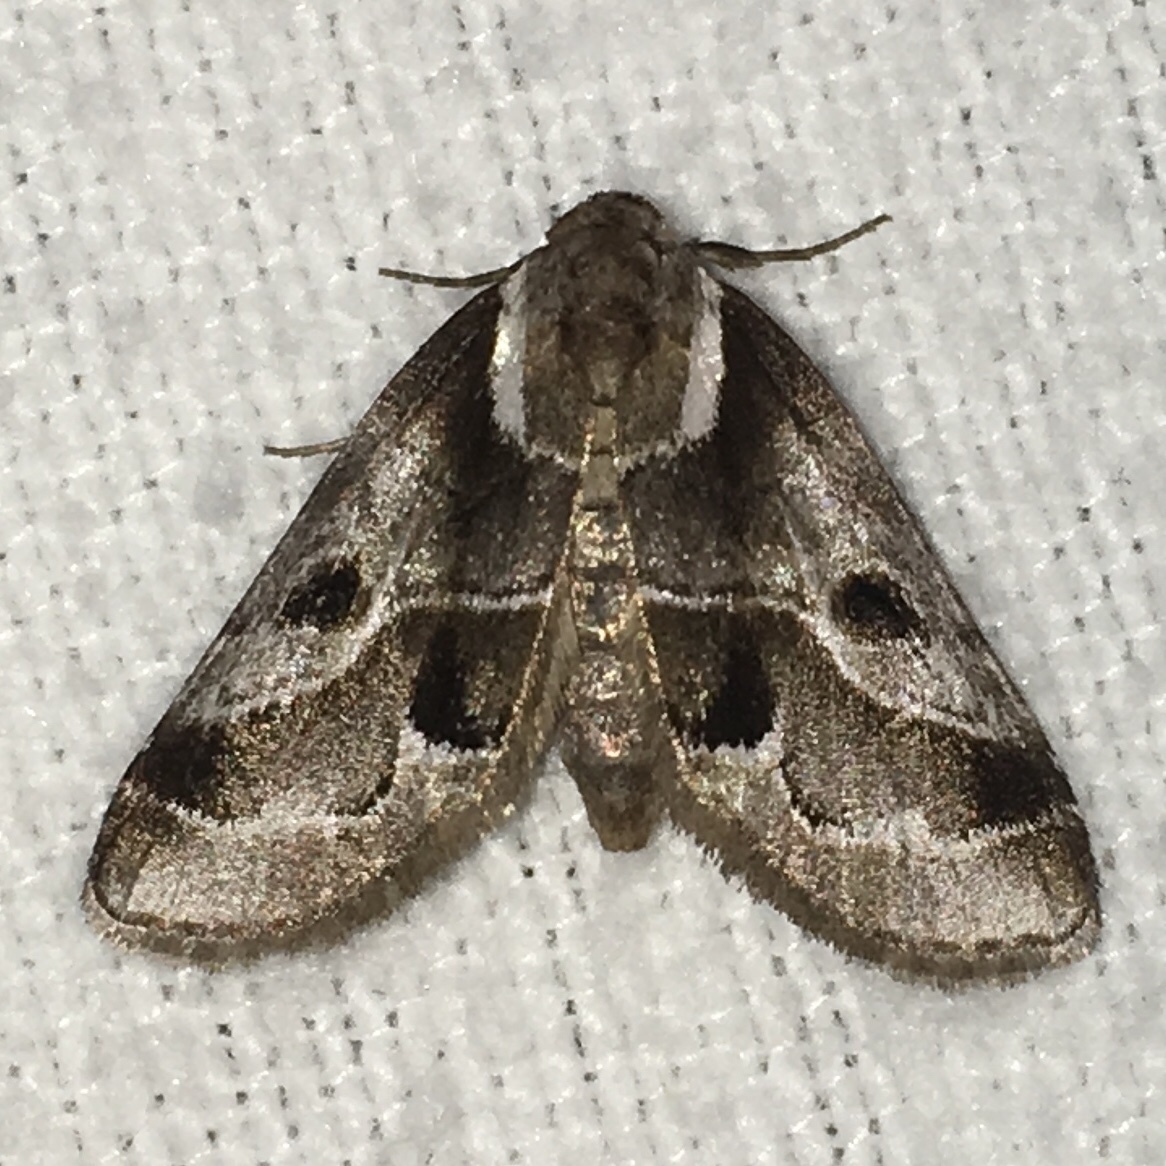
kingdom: Animalia
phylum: Arthropoda
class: Insecta
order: Lepidoptera
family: Nolidae
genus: Baileya
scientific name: Baileya doubledayi
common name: Doubleday's baileya moth
